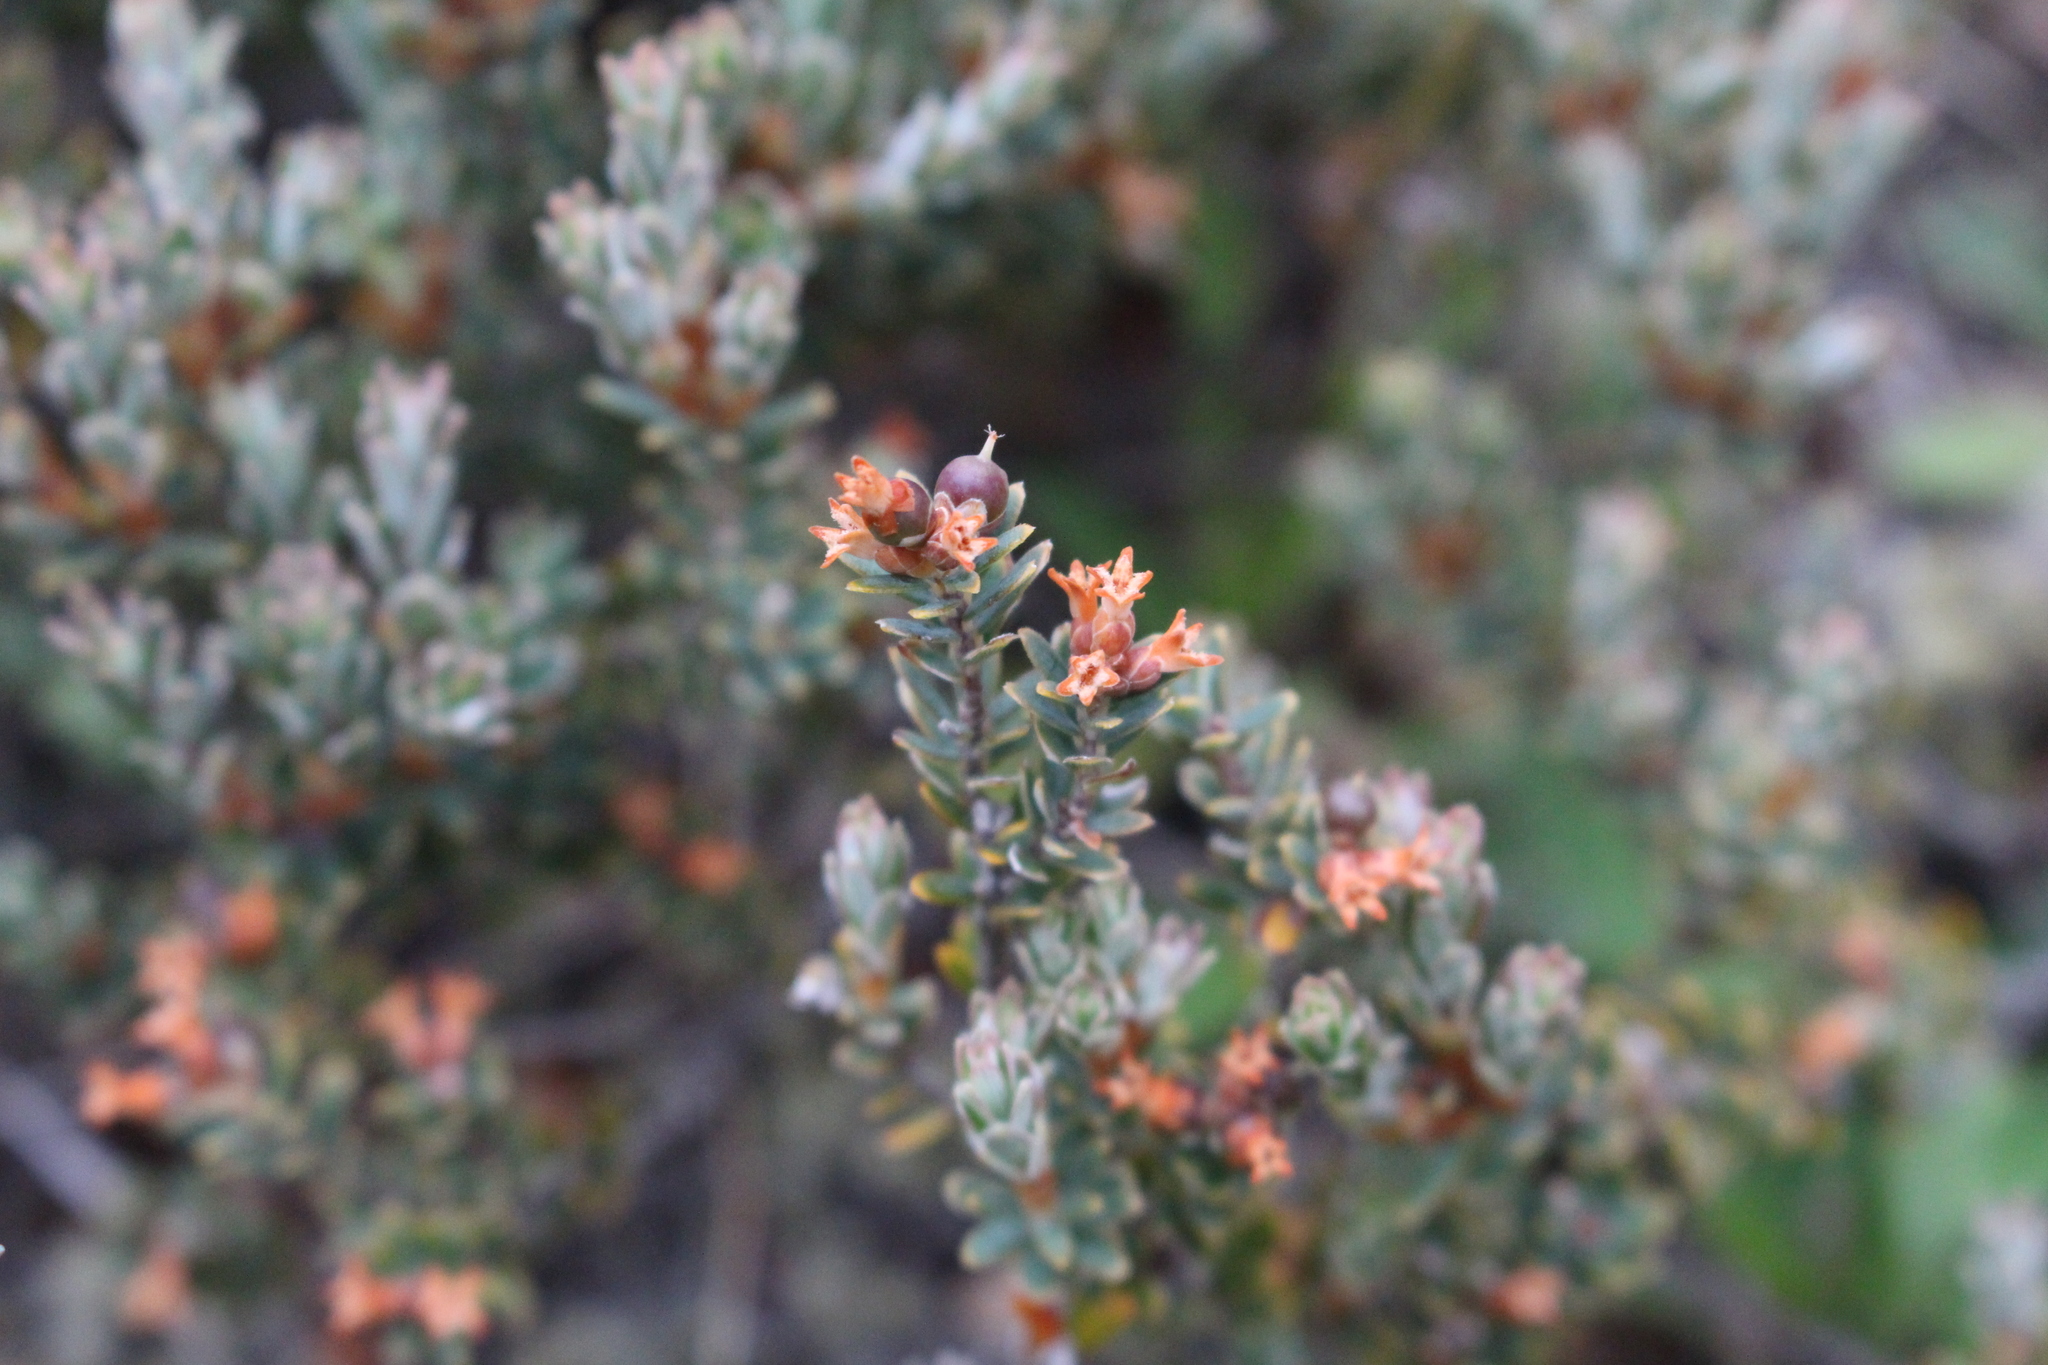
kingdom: Plantae
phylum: Tracheophyta
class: Magnoliopsida
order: Ericales
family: Ericaceae
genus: Acrothamnus
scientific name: Acrothamnus colensoi
